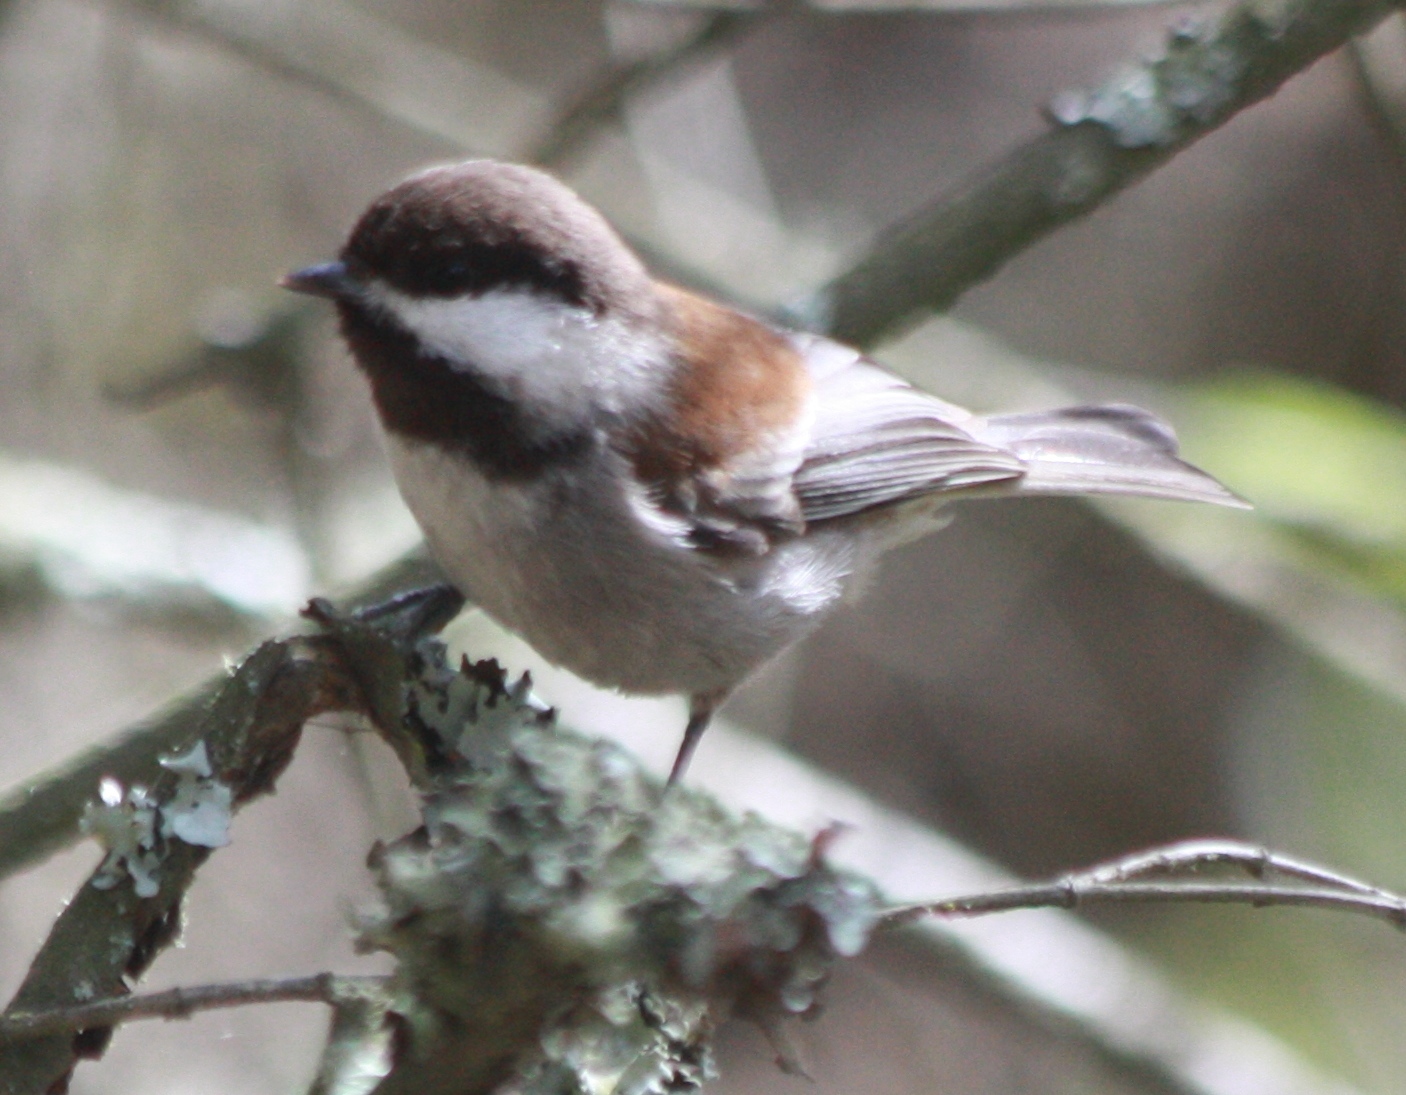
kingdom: Animalia
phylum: Chordata
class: Aves
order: Passeriformes
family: Paridae
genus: Poecile
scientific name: Poecile rufescens
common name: Chestnut-backed chickadee
